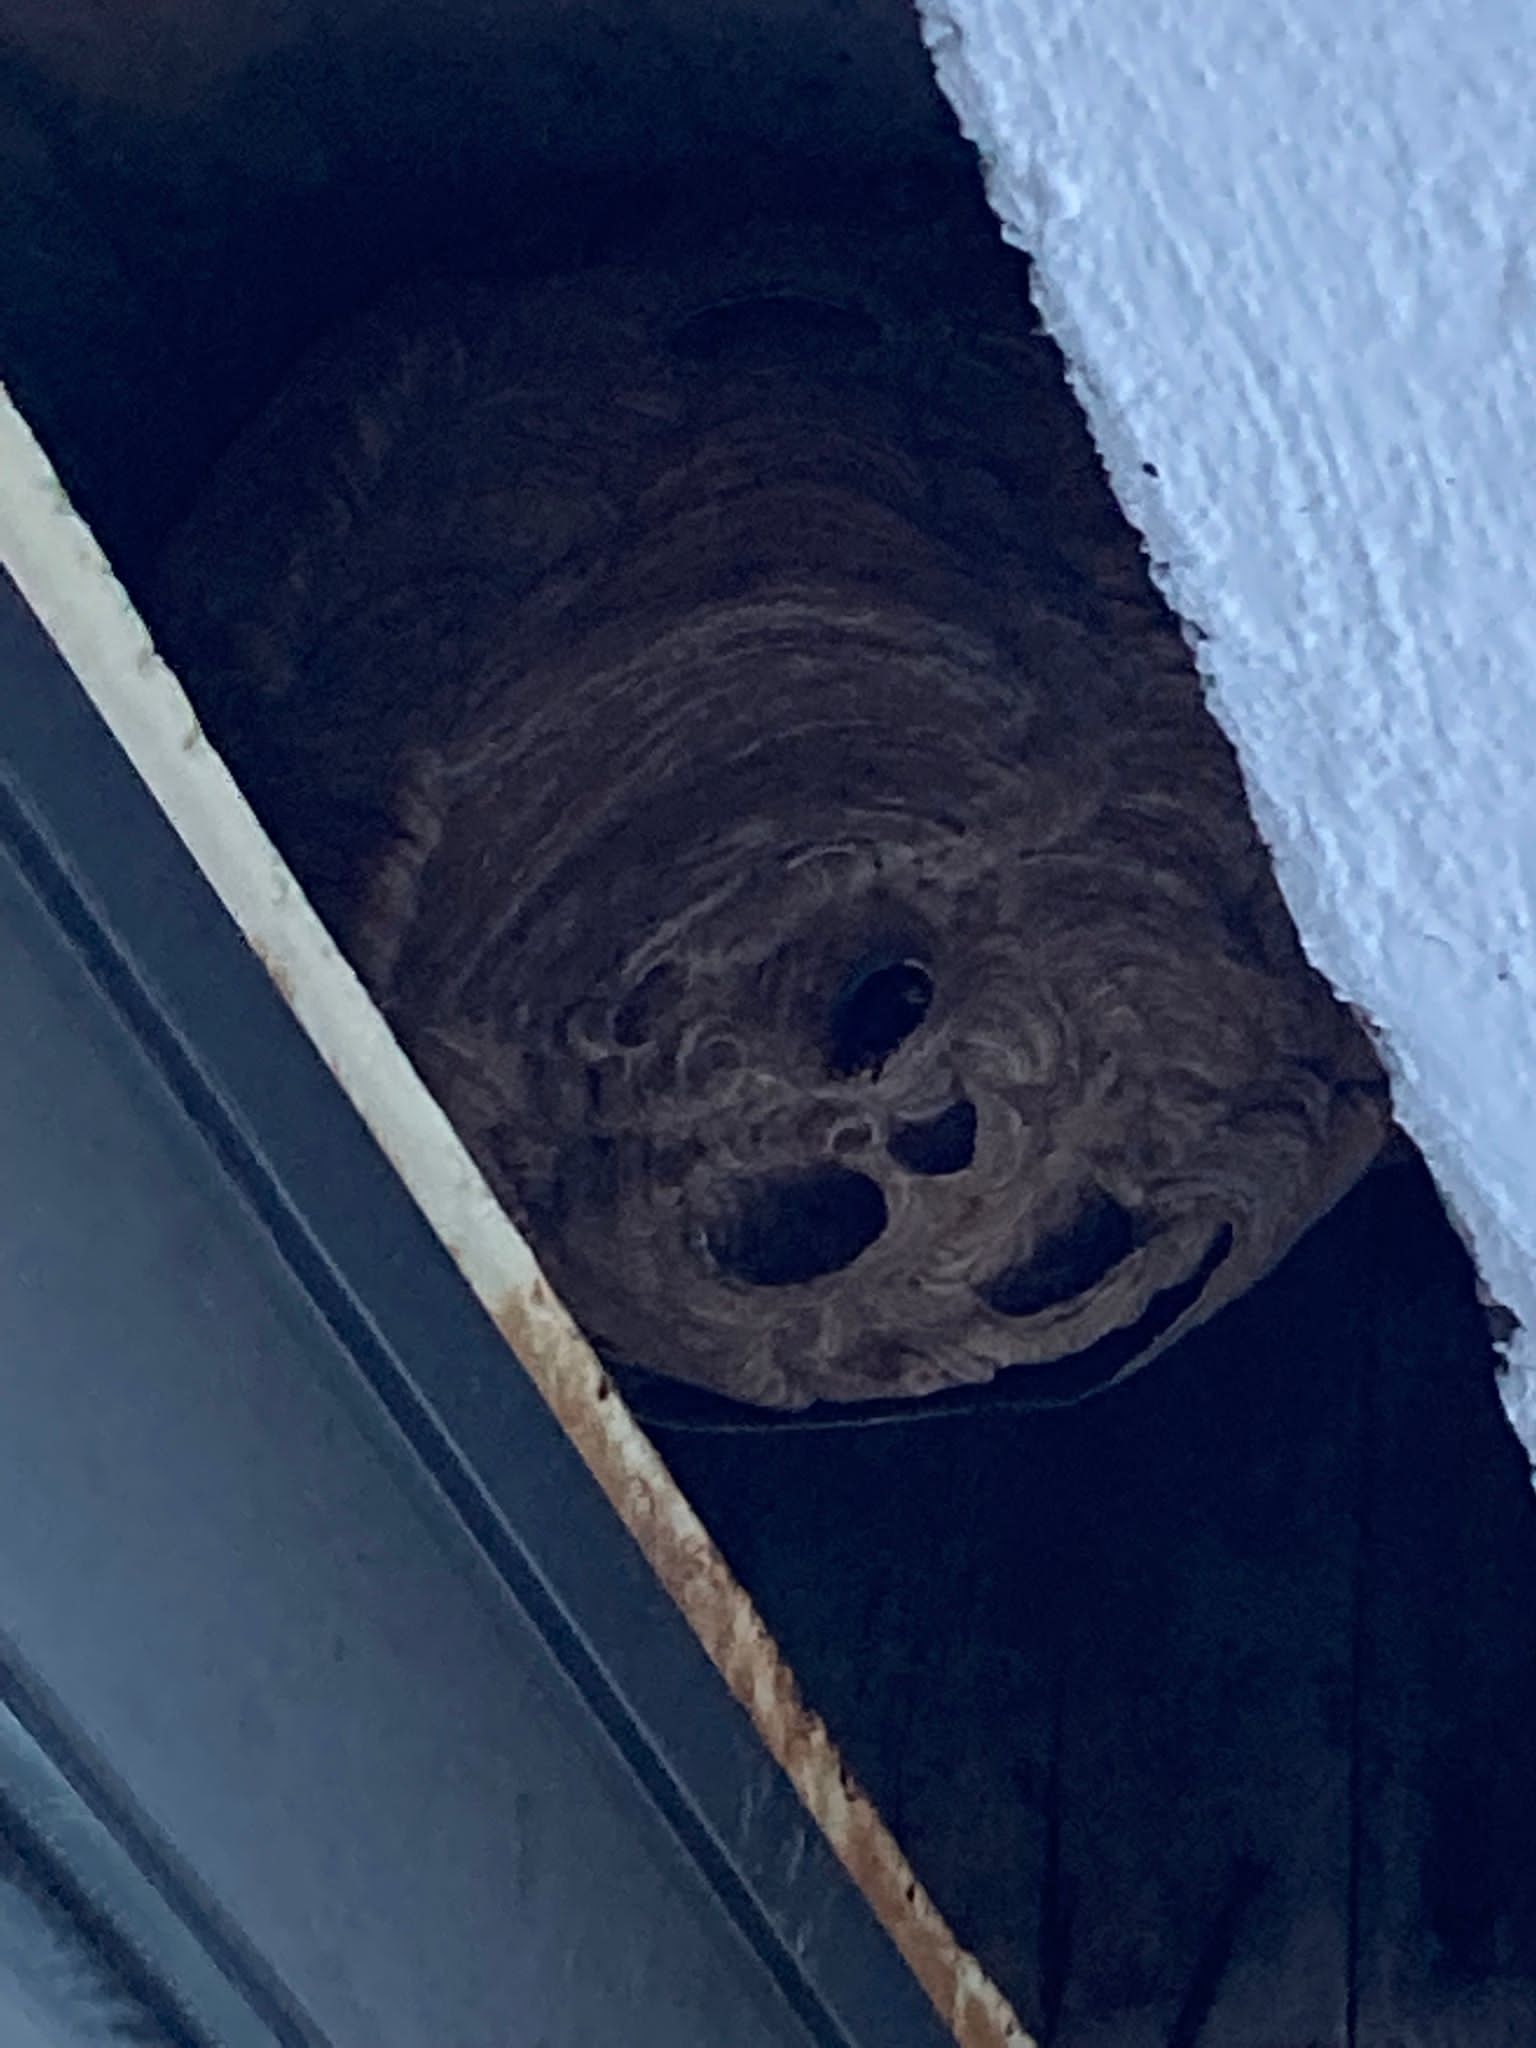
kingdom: Animalia
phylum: Arthropoda
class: Insecta
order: Hymenoptera
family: Vespidae
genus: Vespa
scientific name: Vespa velutina
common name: Asian hornet
